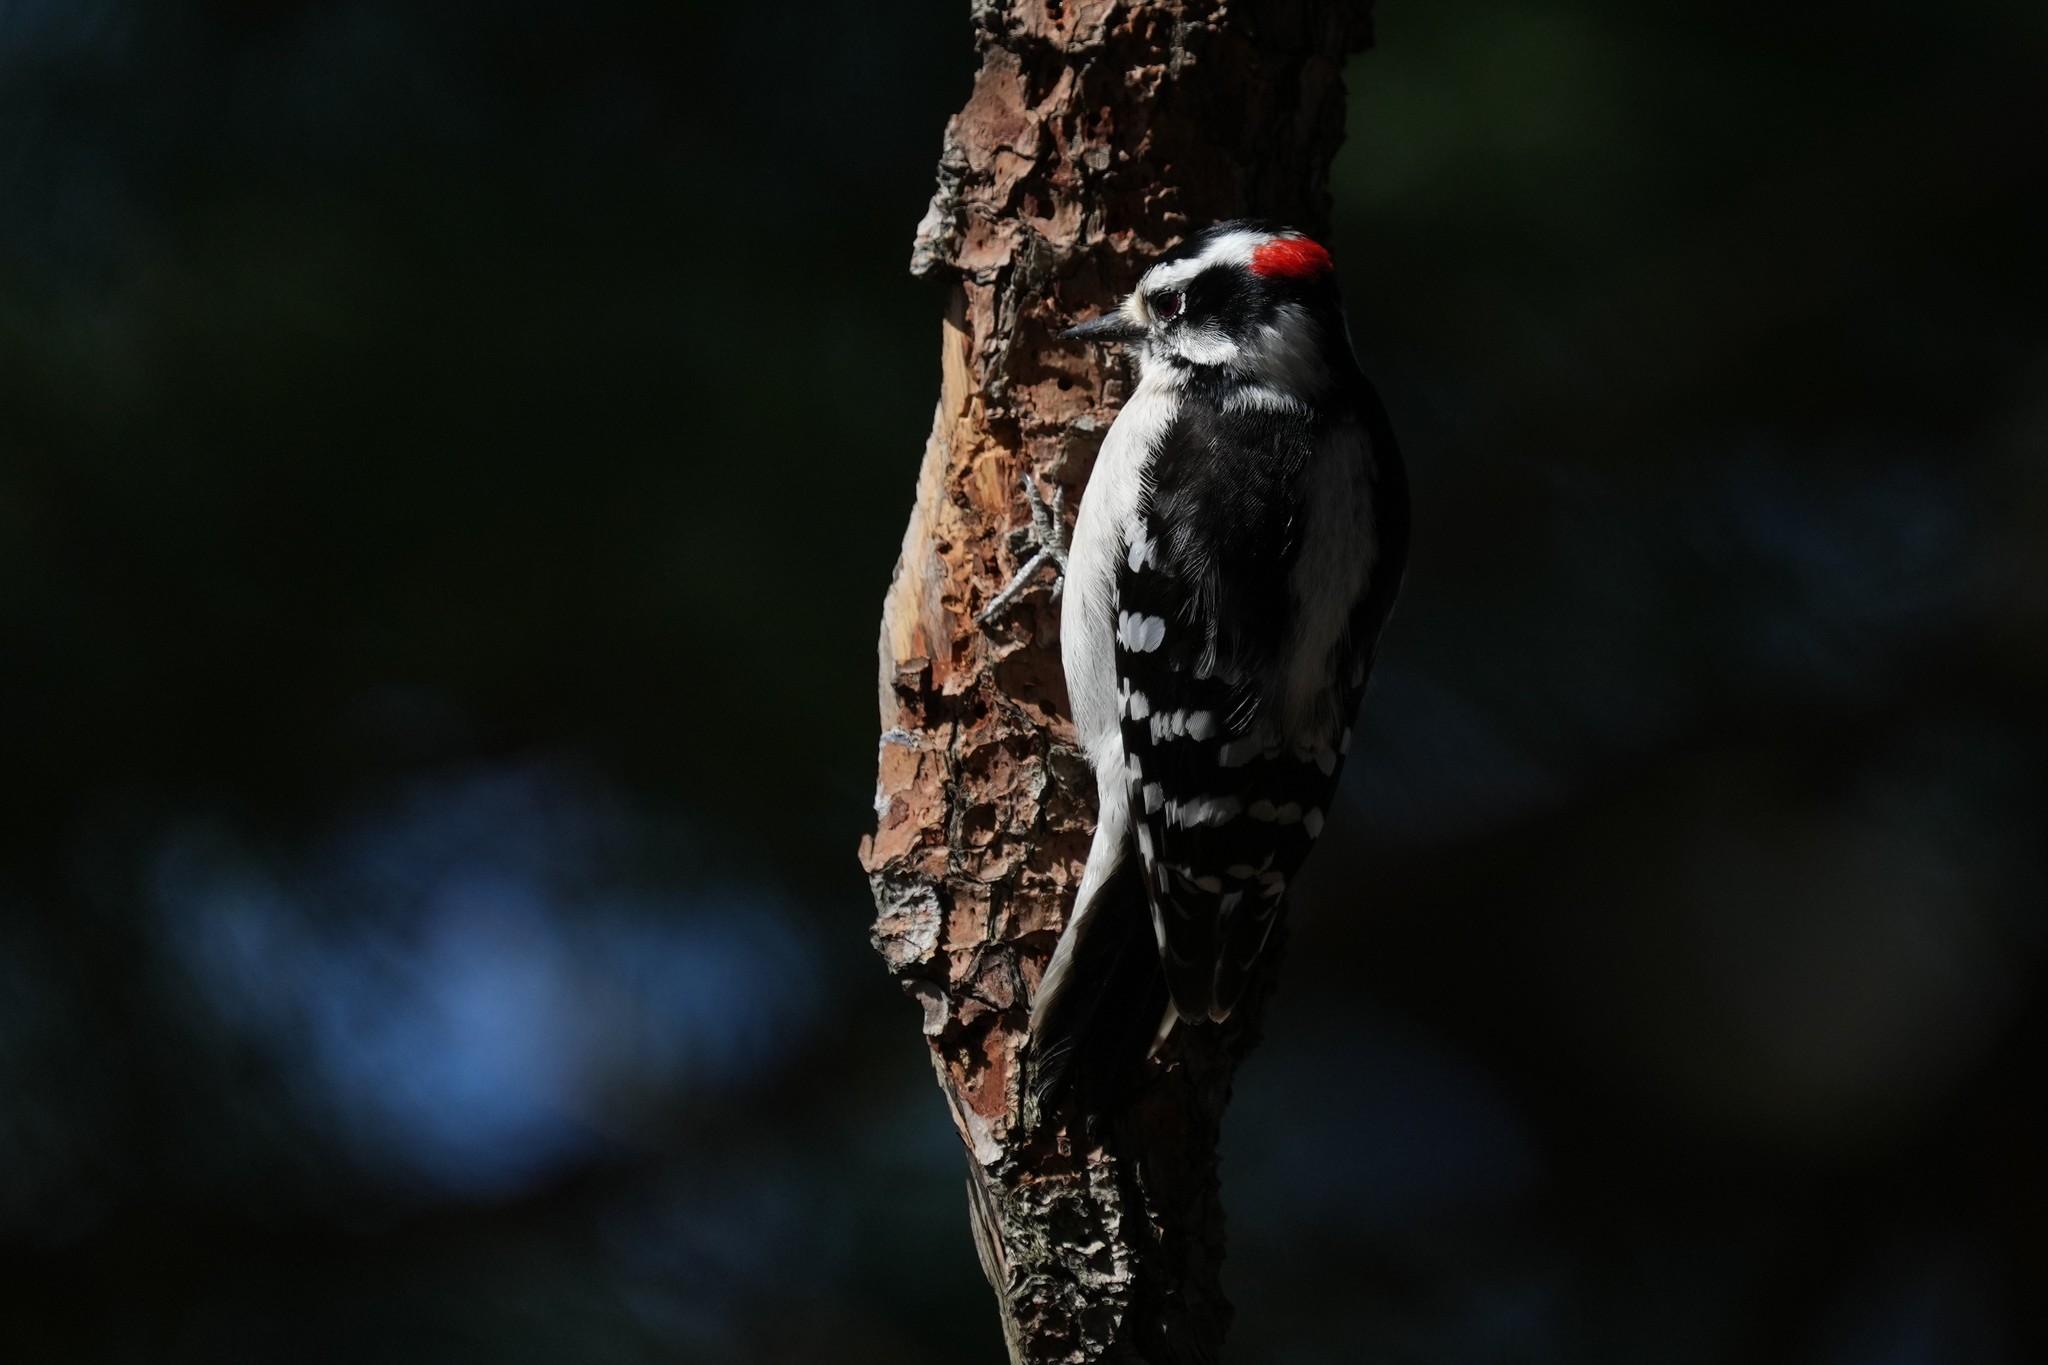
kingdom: Animalia
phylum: Chordata
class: Aves
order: Piciformes
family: Picidae
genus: Dryobates
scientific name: Dryobates pubescens
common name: Downy woodpecker
